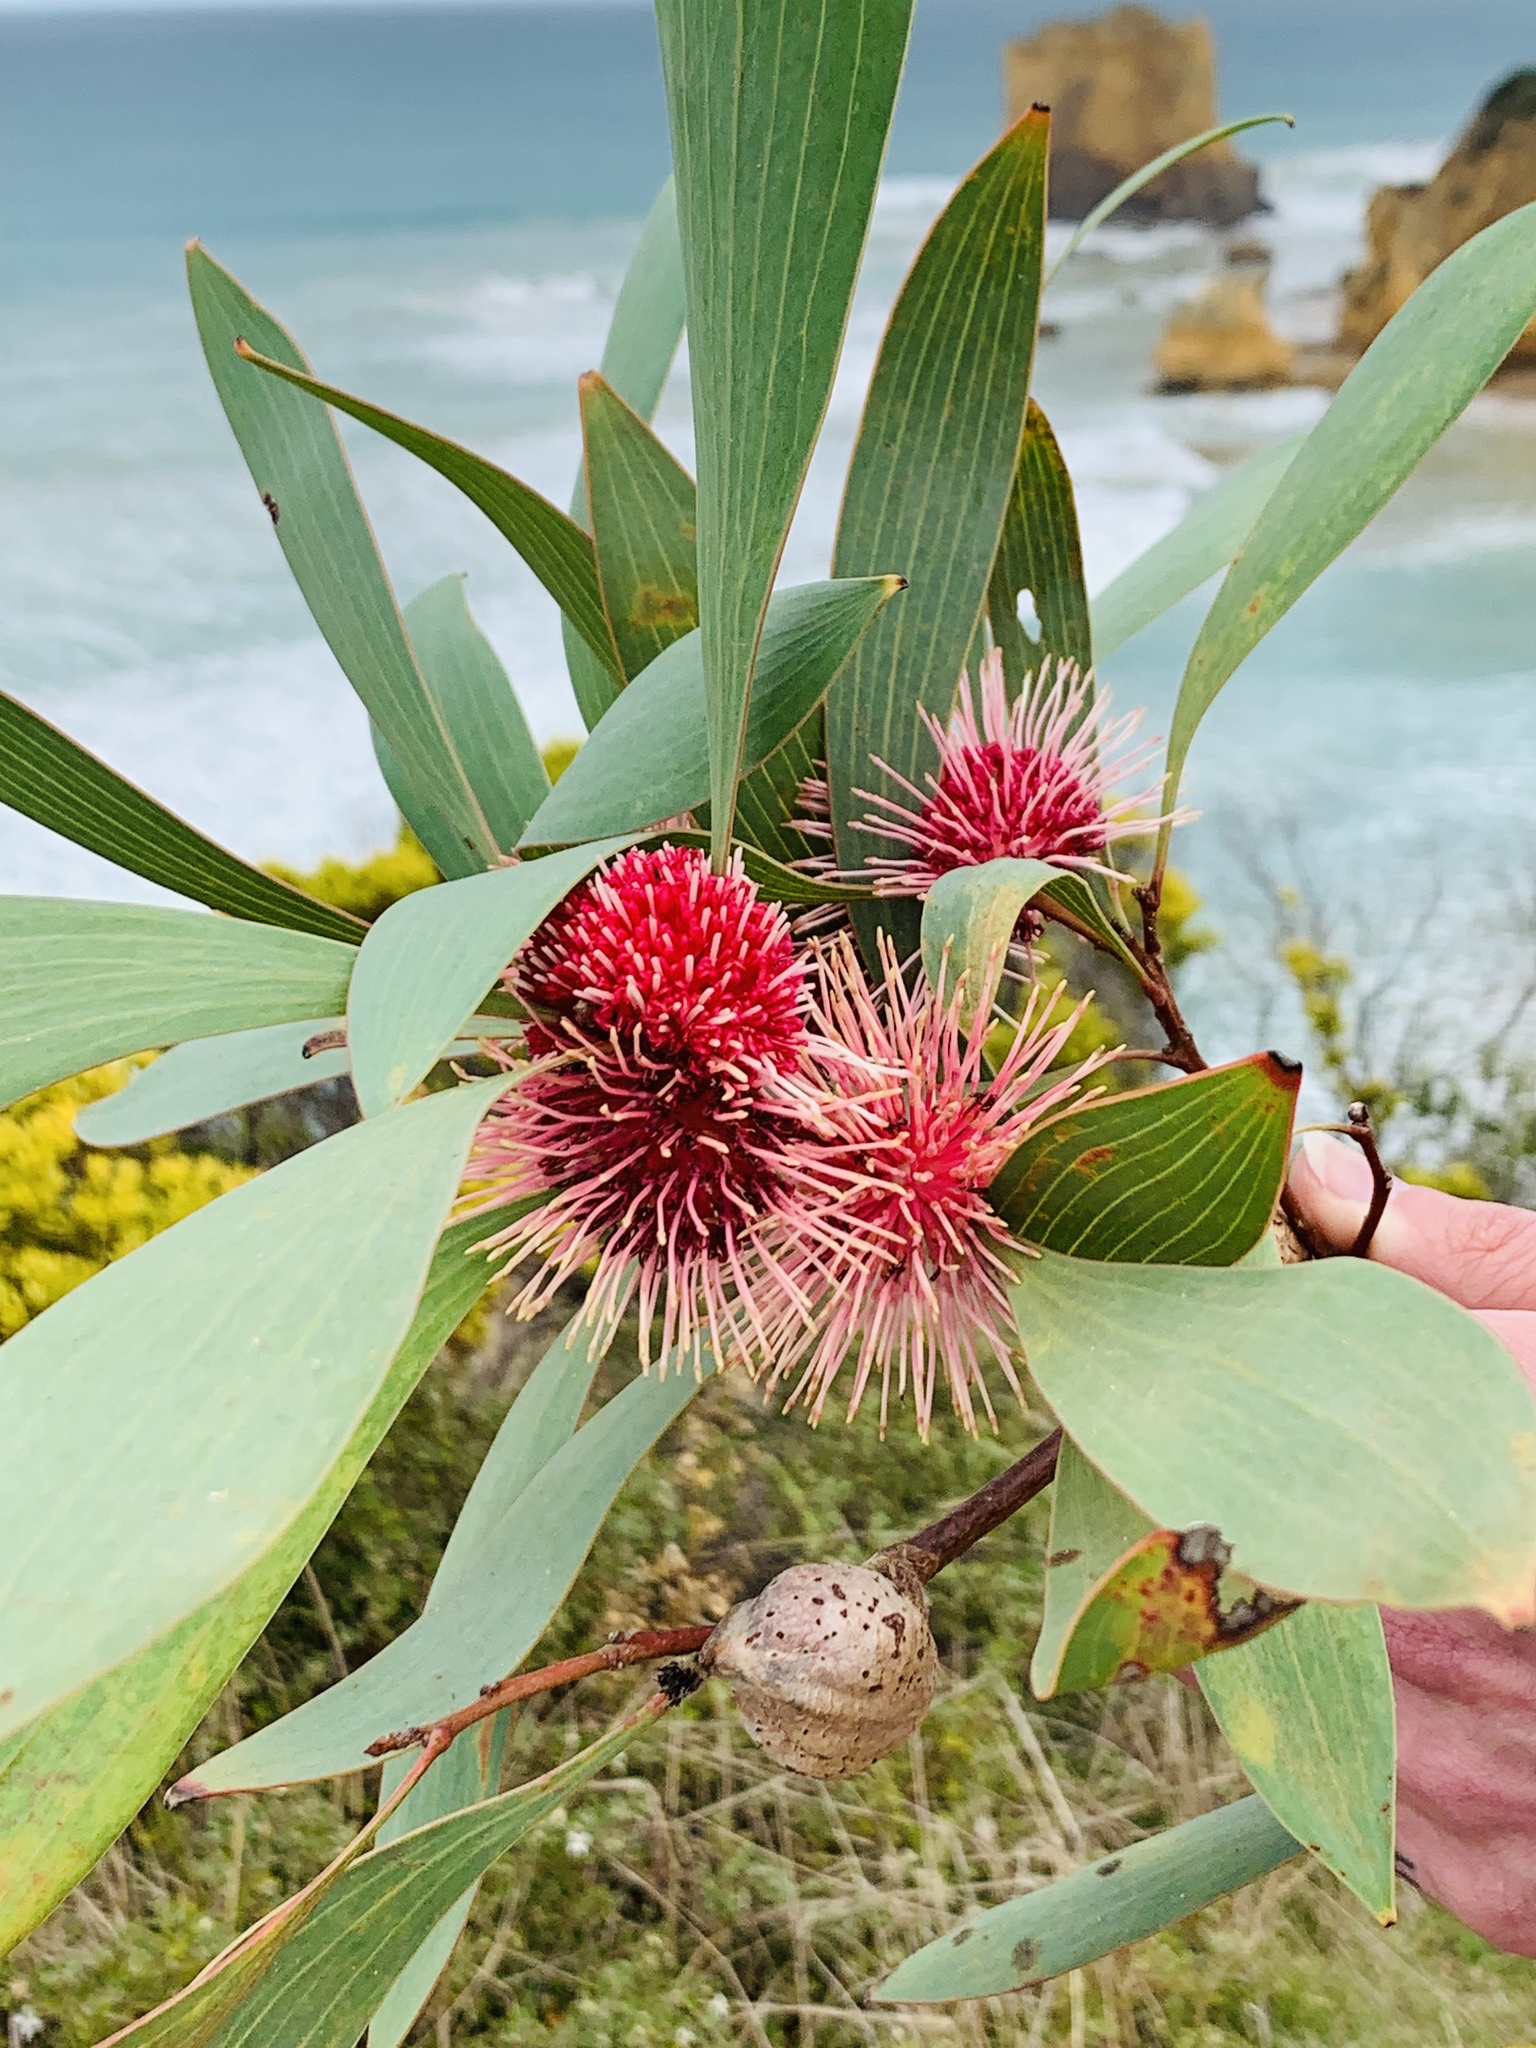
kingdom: Plantae
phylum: Tracheophyta
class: Magnoliopsida
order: Proteales
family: Proteaceae
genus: Hakea
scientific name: Hakea laurina
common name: Cushion hakea
